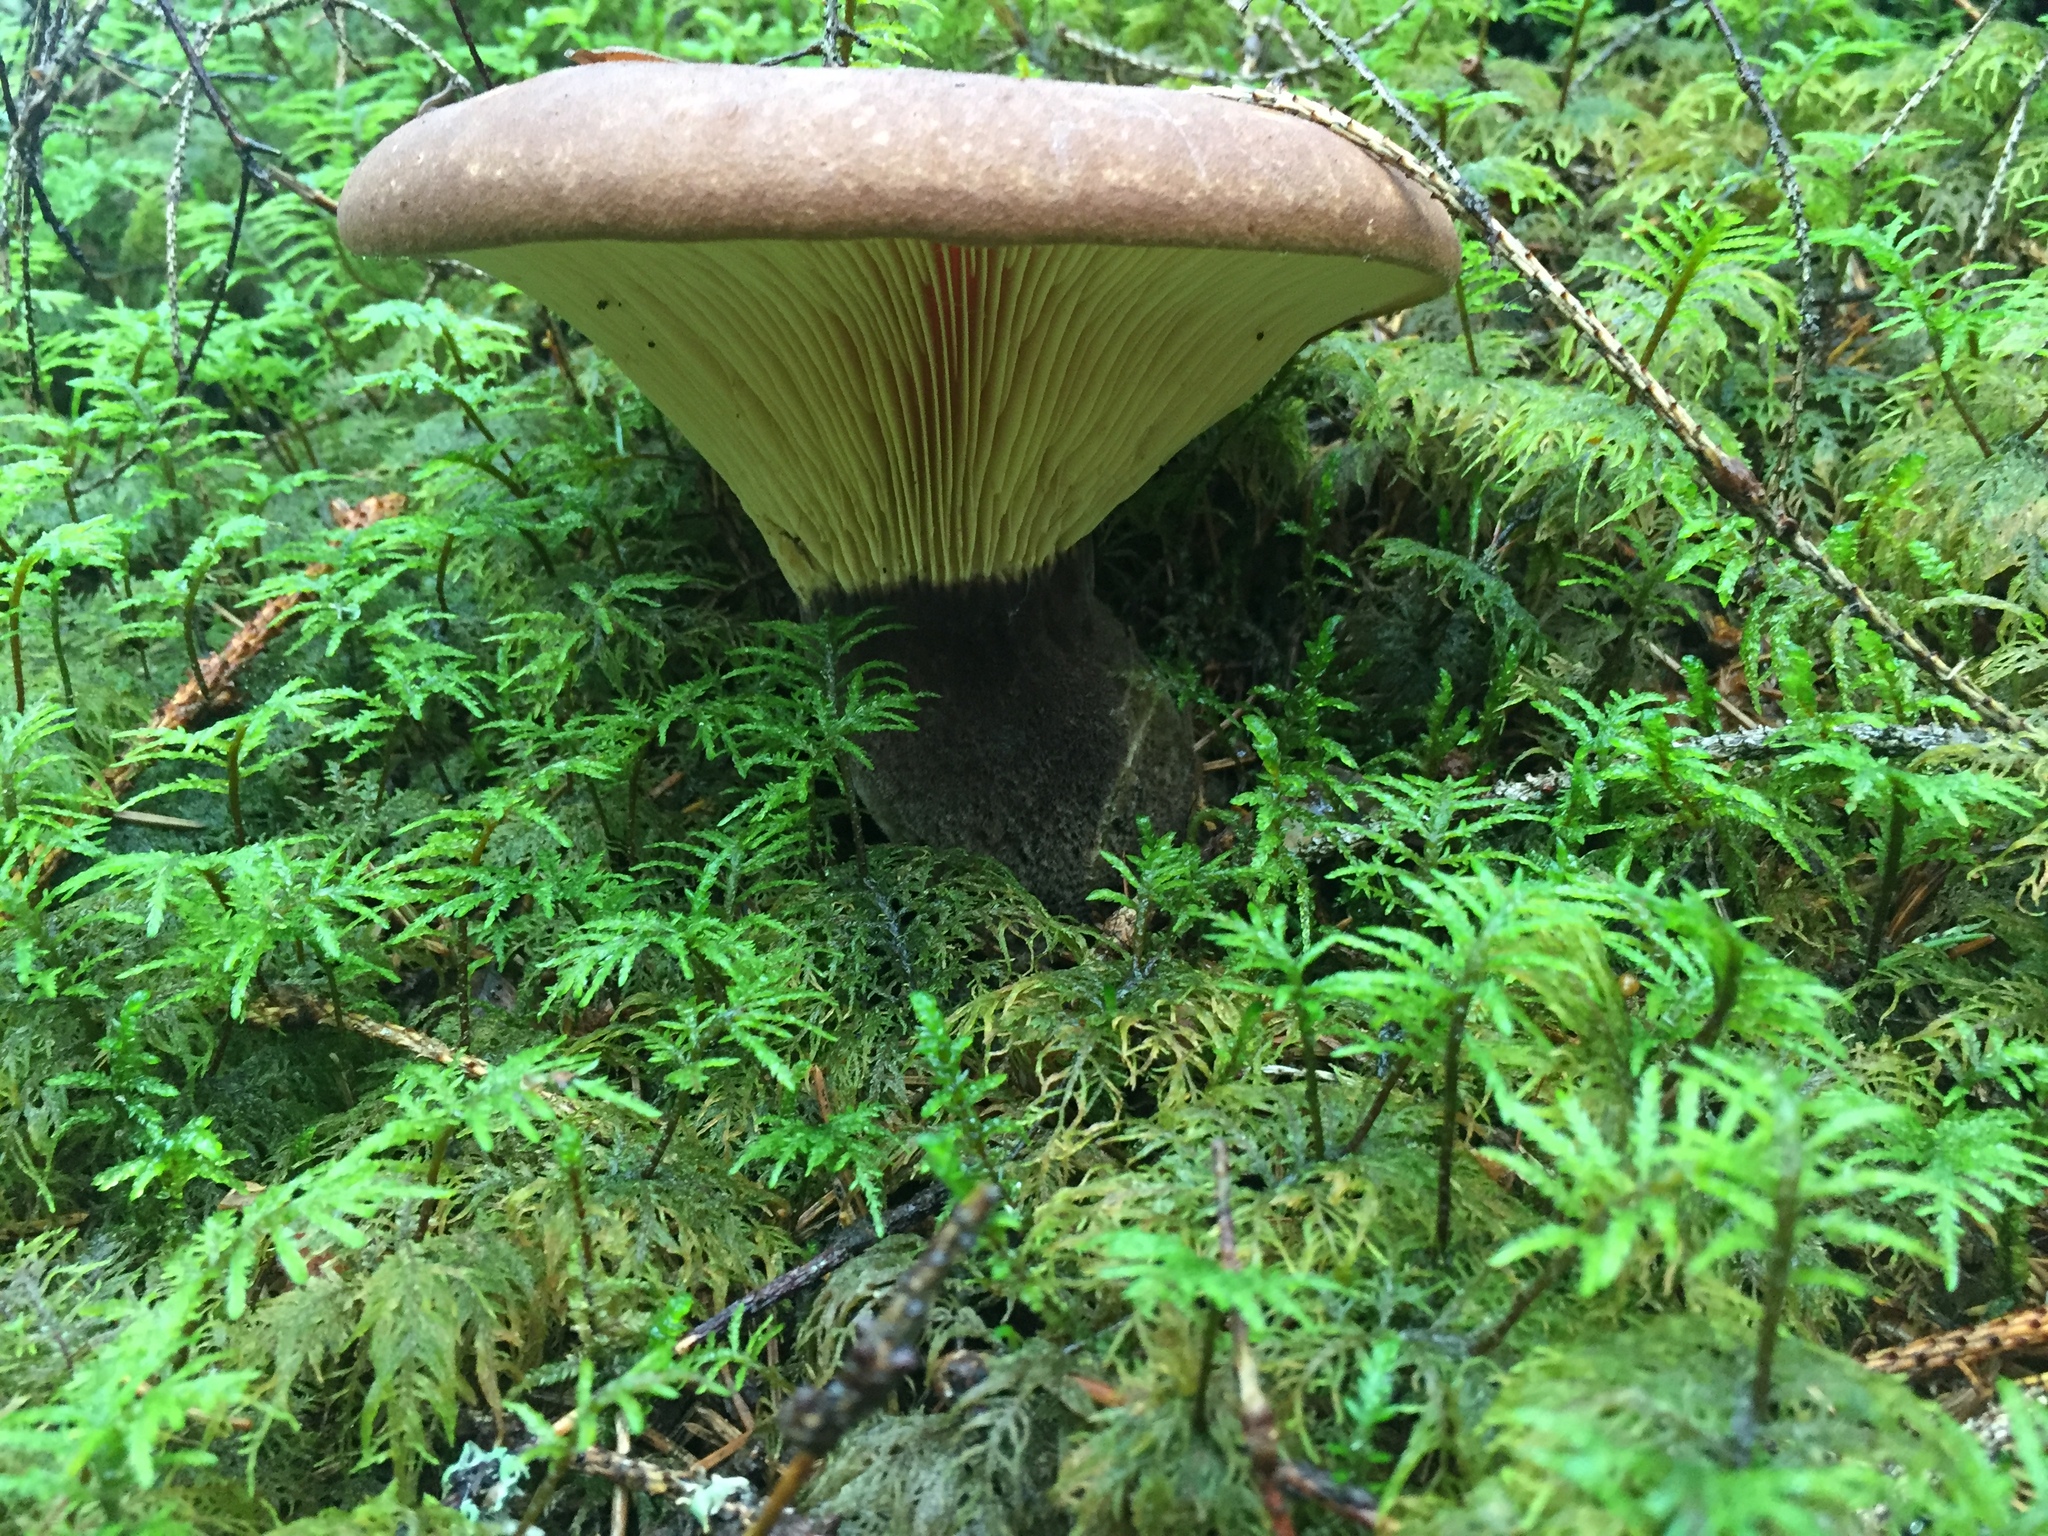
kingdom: Fungi
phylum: Basidiomycota
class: Agaricomycetes
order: Boletales
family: Tapinellaceae
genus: Tapinella
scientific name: Tapinella atrotomentosa
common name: Velvet rollrim
